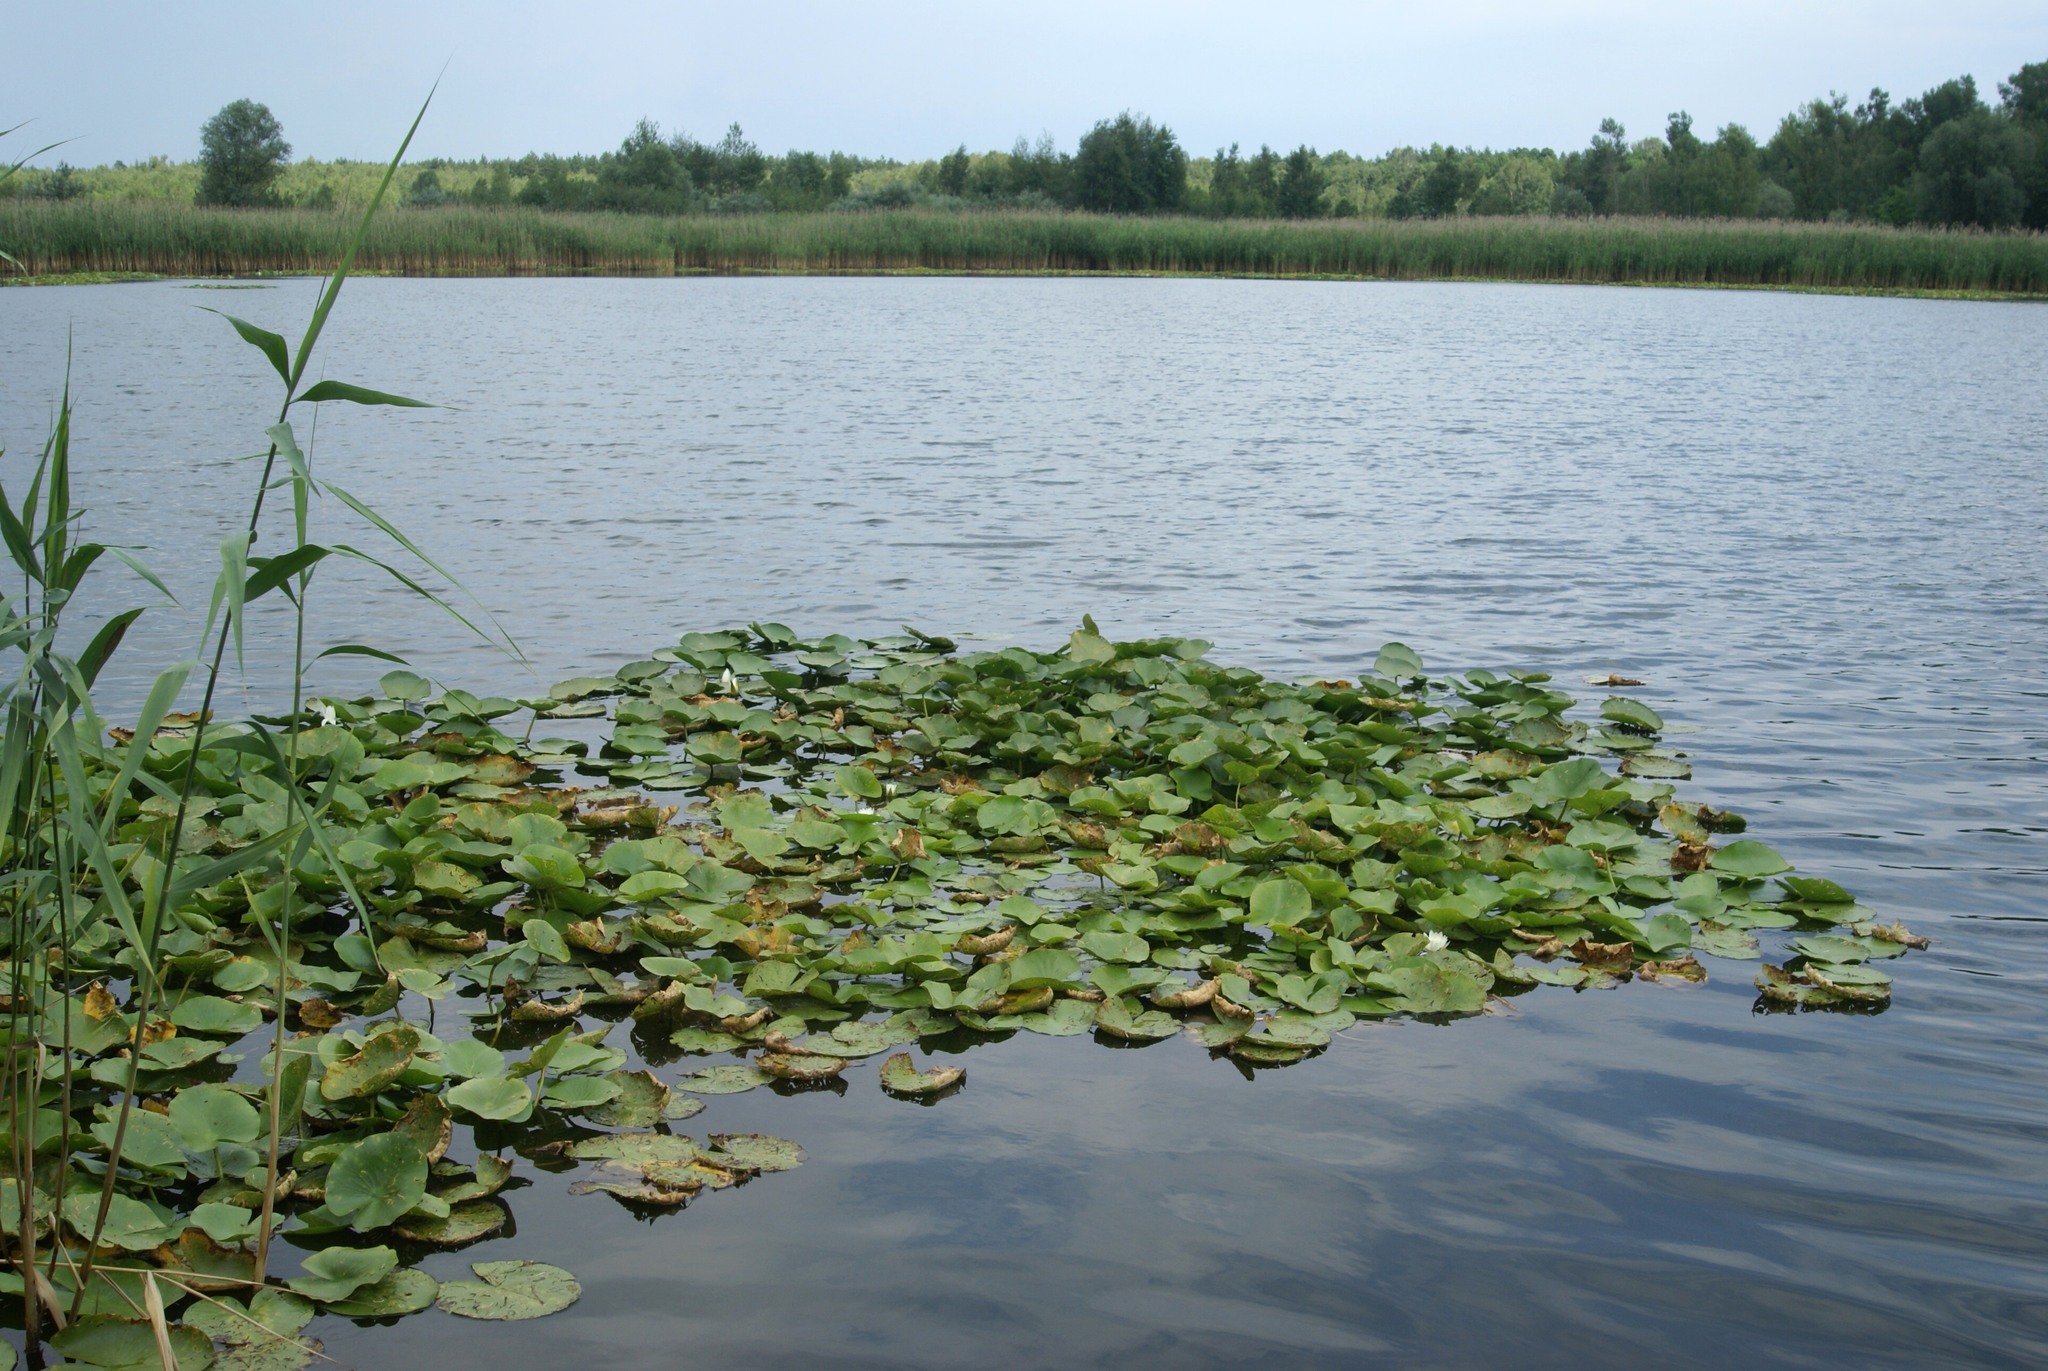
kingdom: Plantae
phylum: Tracheophyta
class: Magnoliopsida
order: Nymphaeales
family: Nymphaeaceae
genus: Nymphaea
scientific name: Nymphaea alba
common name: White water-lily
